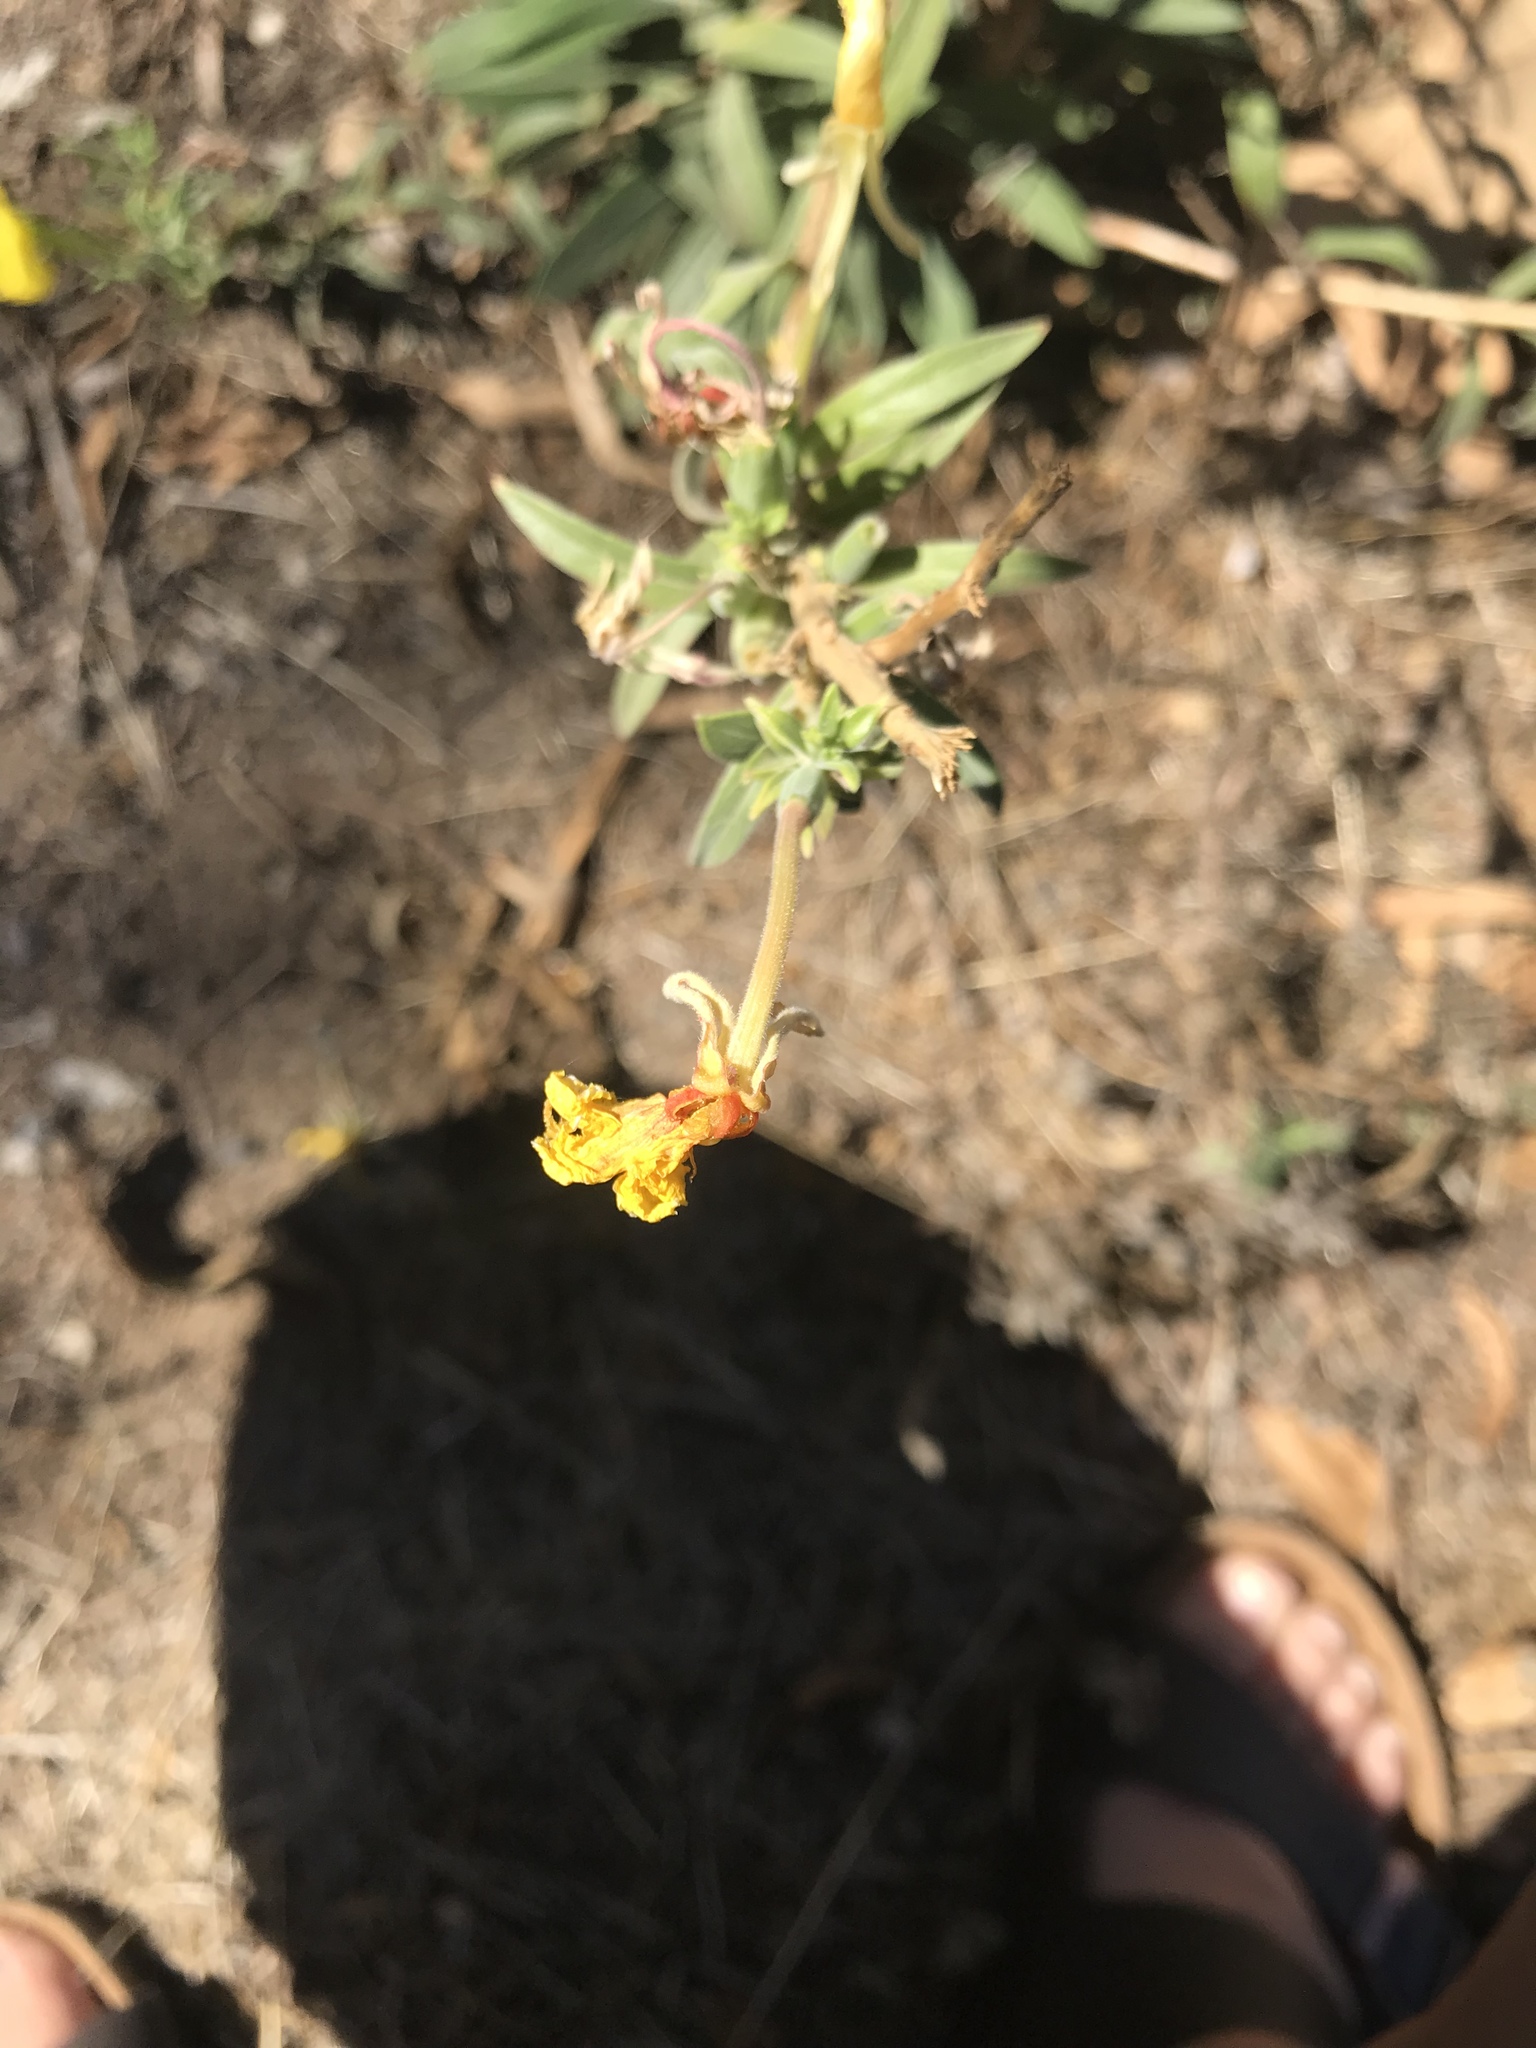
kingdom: Plantae
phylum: Tracheophyta
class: Magnoliopsida
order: Myrtales
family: Onagraceae
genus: Oenothera
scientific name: Oenothera elata
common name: Hooker's evening-primrose
